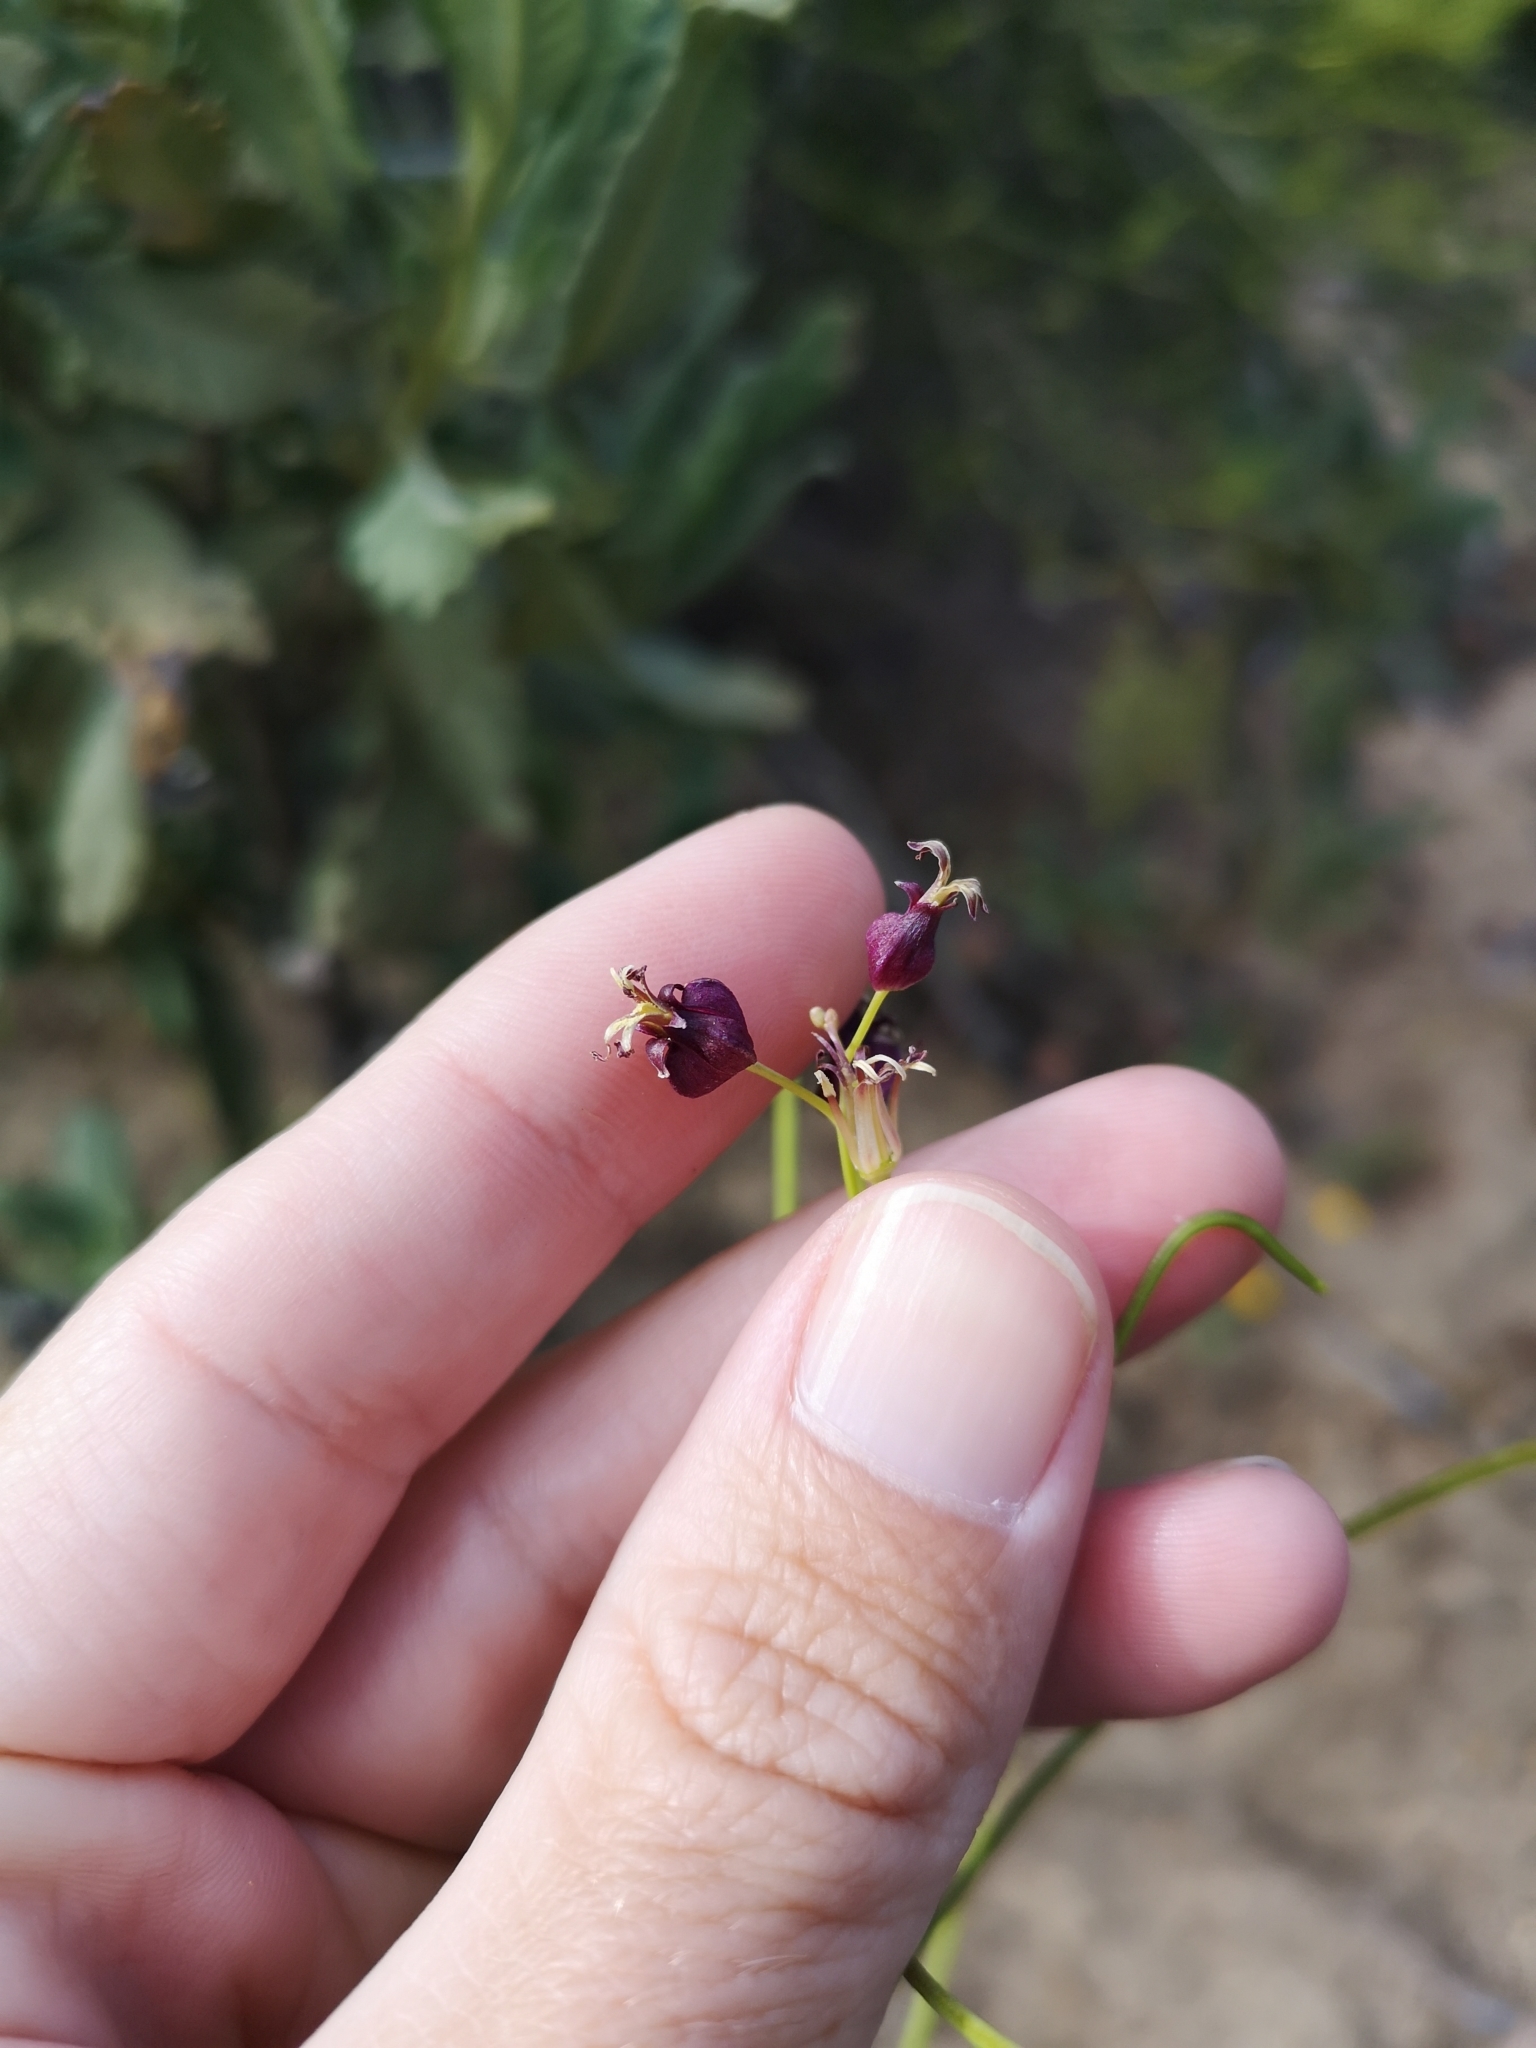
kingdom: Plantae
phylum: Tracheophyta
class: Magnoliopsida
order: Brassicales
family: Brassicaceae
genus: Streptanthus
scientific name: Streptanthus amplexicaulis
